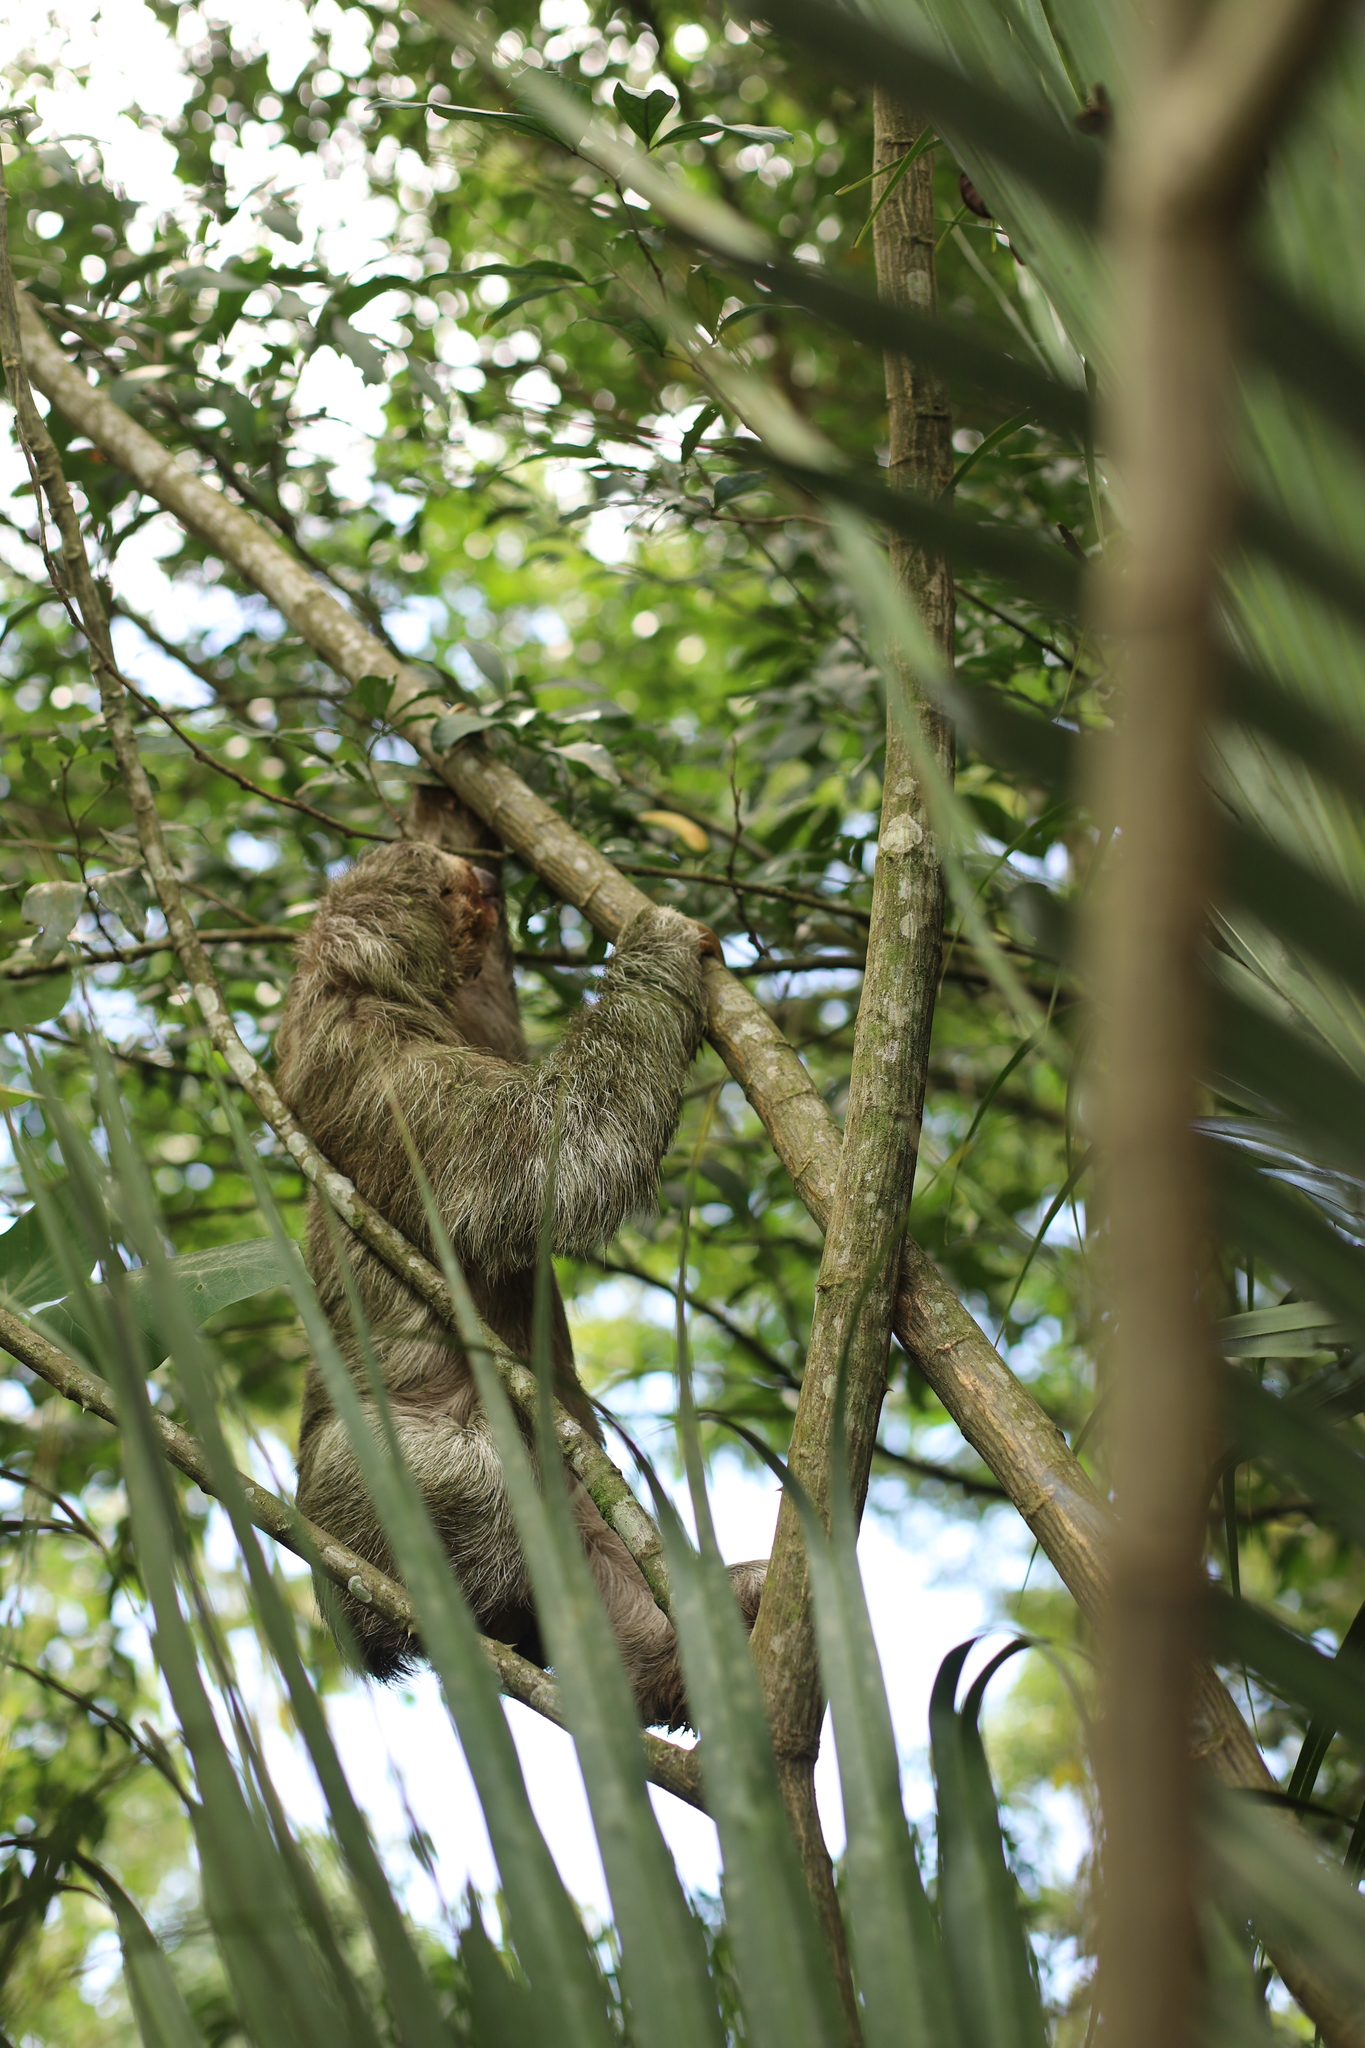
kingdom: Animalia
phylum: Chordata
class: Mammalia
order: Pilosa
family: Bradypodidae
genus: Bradypus
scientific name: Bradypus variegatus
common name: Brown-throated three-toed sloth
